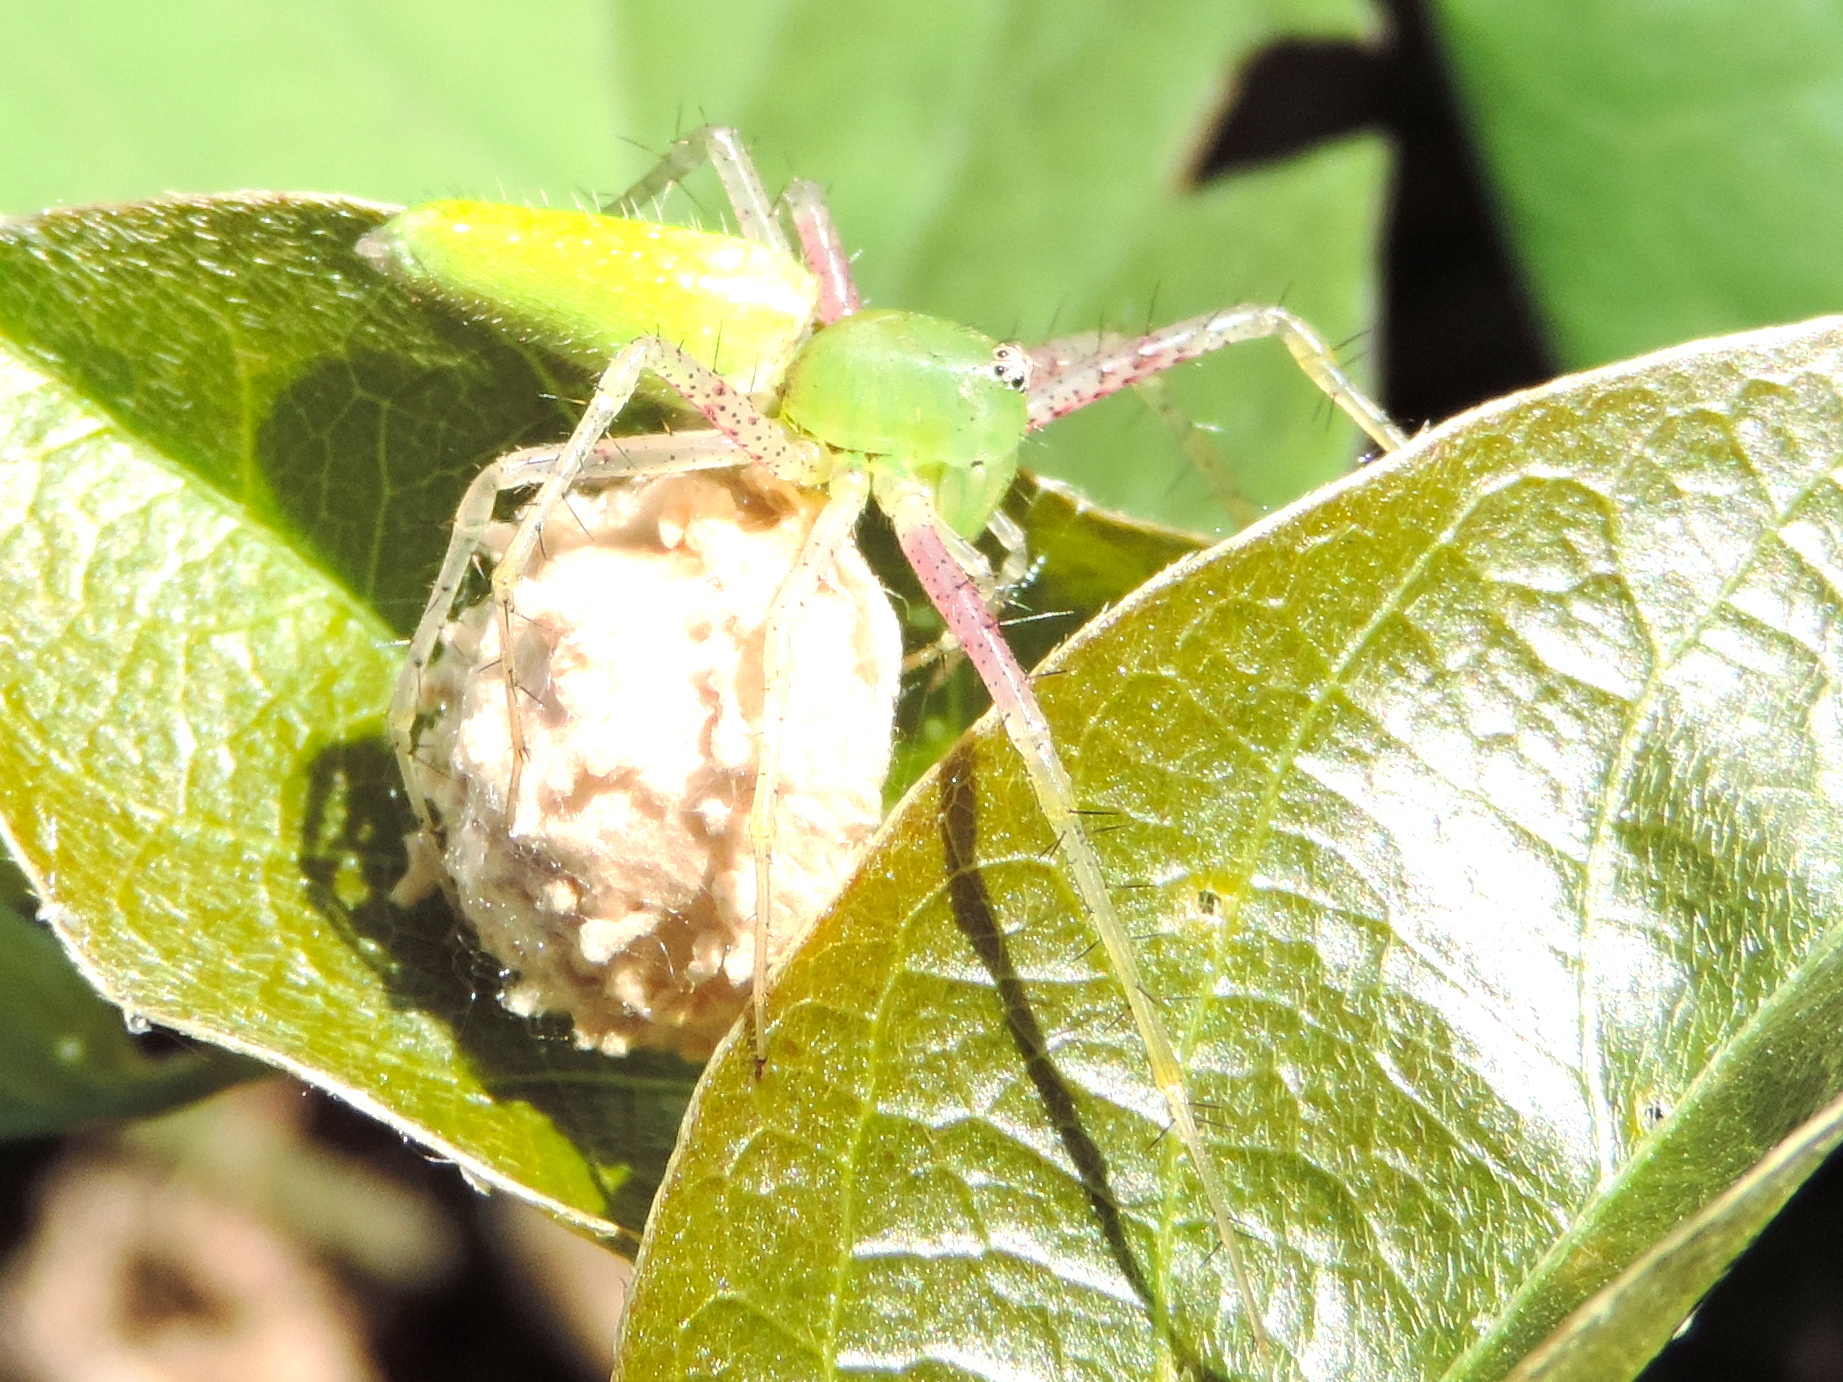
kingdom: Animalia
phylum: Arthropoda
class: Arachnida
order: Araneae
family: Oxyopidae
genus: Peucetia
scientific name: Peucetia longipalpis
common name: Lynx spiders
